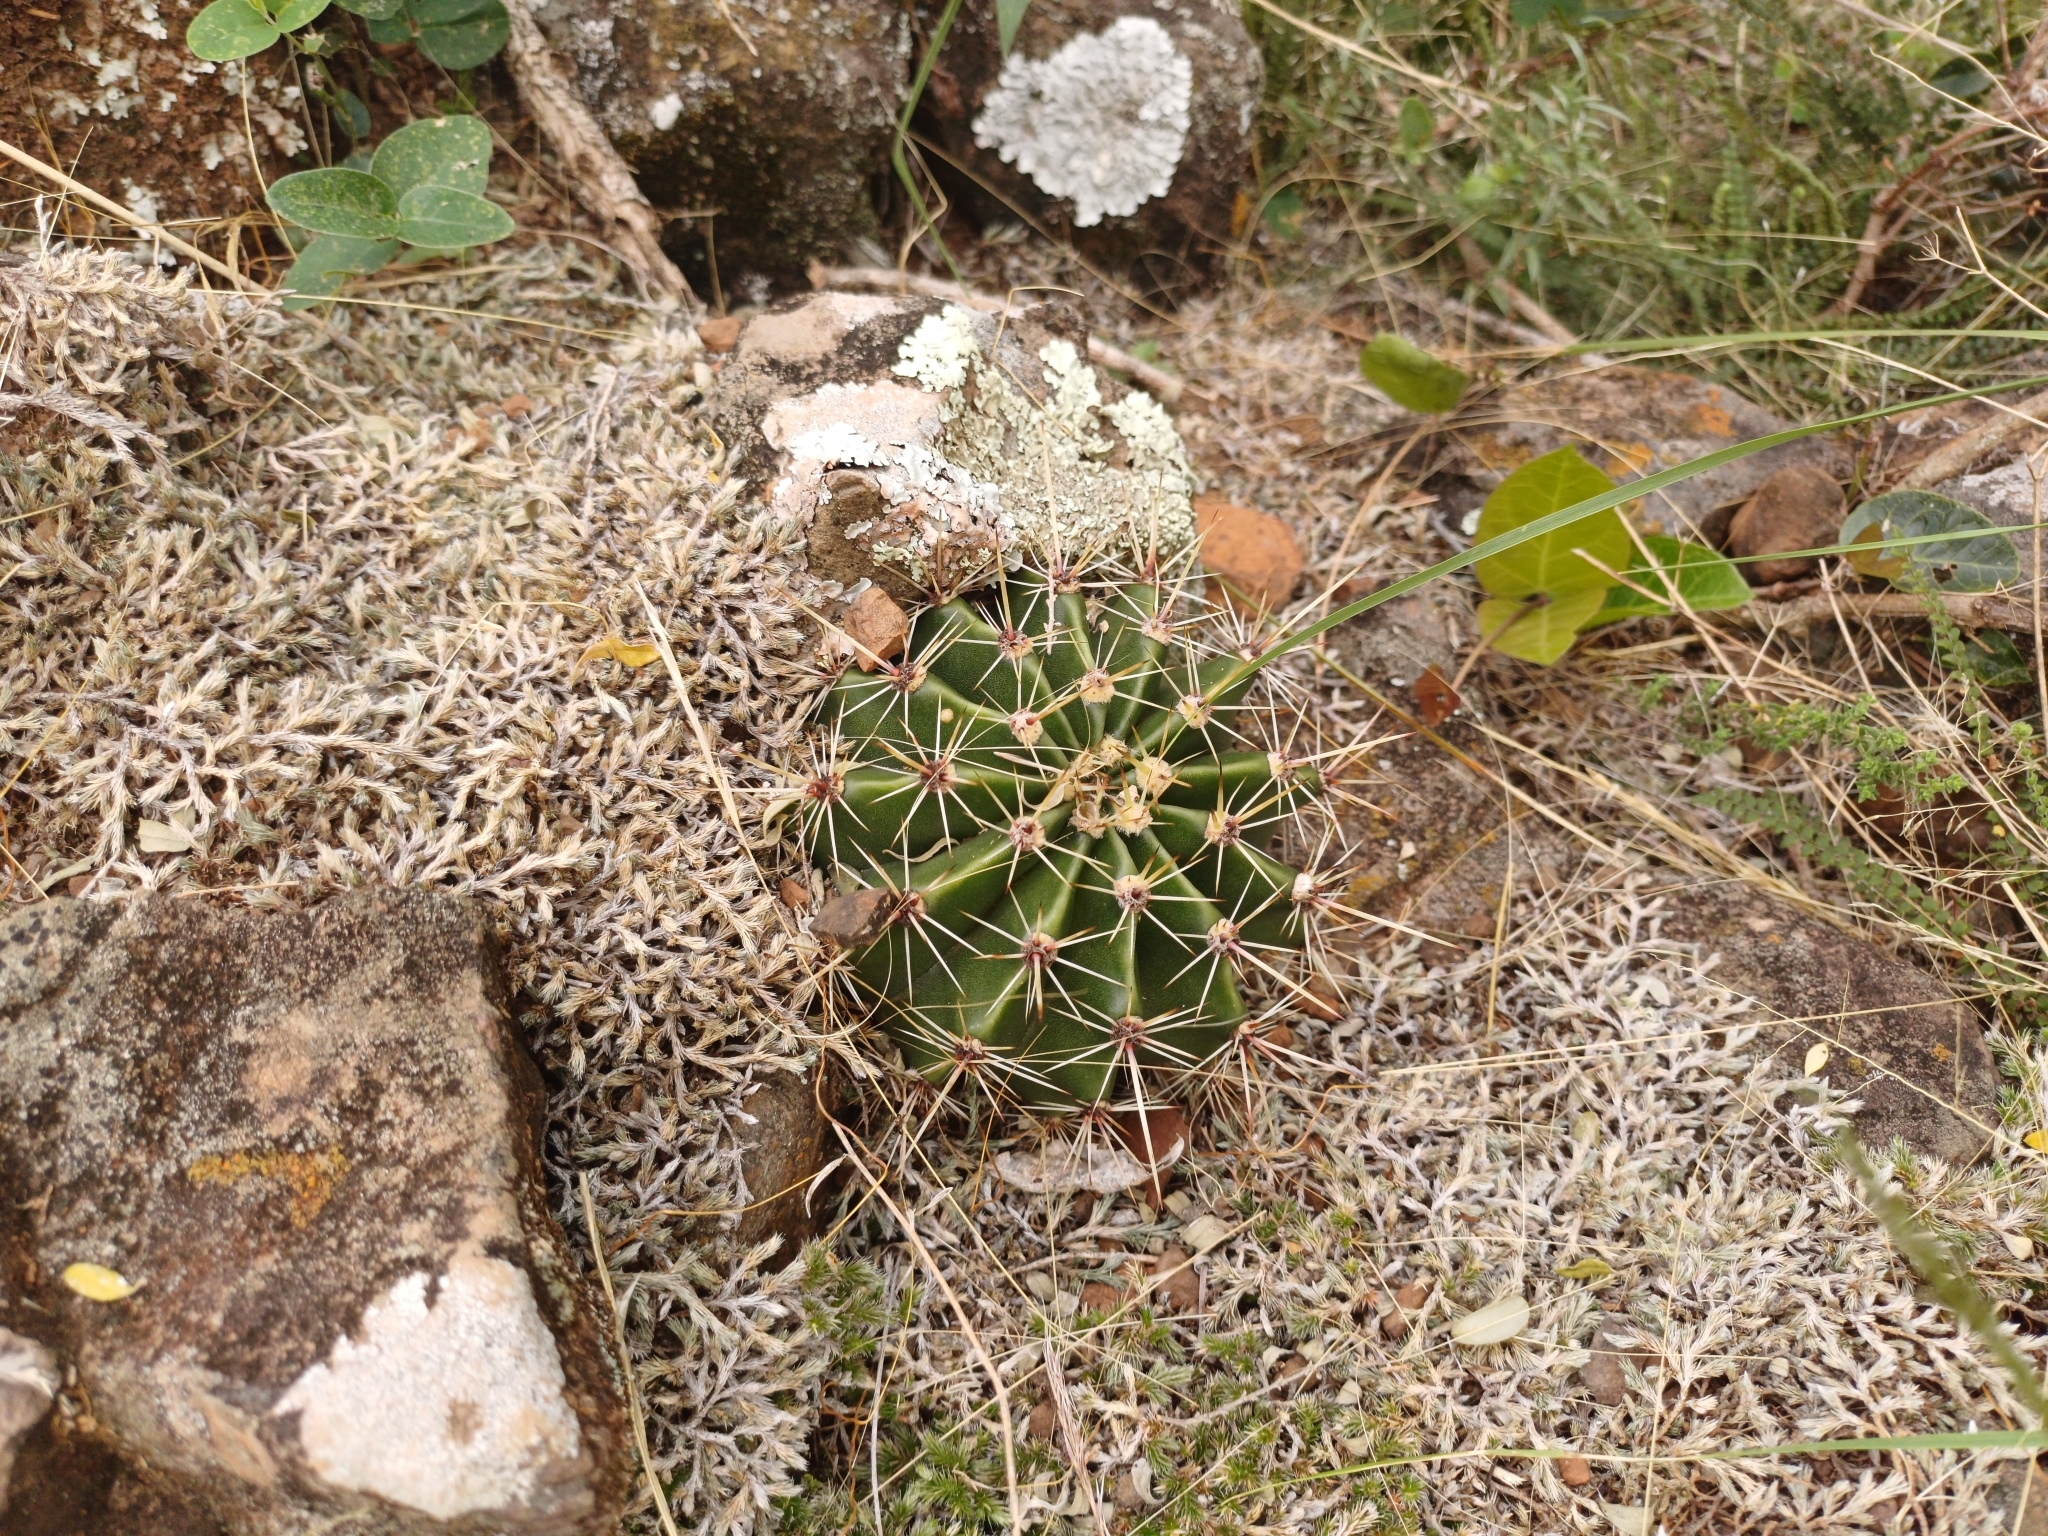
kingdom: Plantae
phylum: Tracheophyta
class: Magnoliopsida
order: Caryophyllales
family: Cactaceae
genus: Echinopsis
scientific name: Echinopsis oxygona
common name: Red easter-lily cactus
